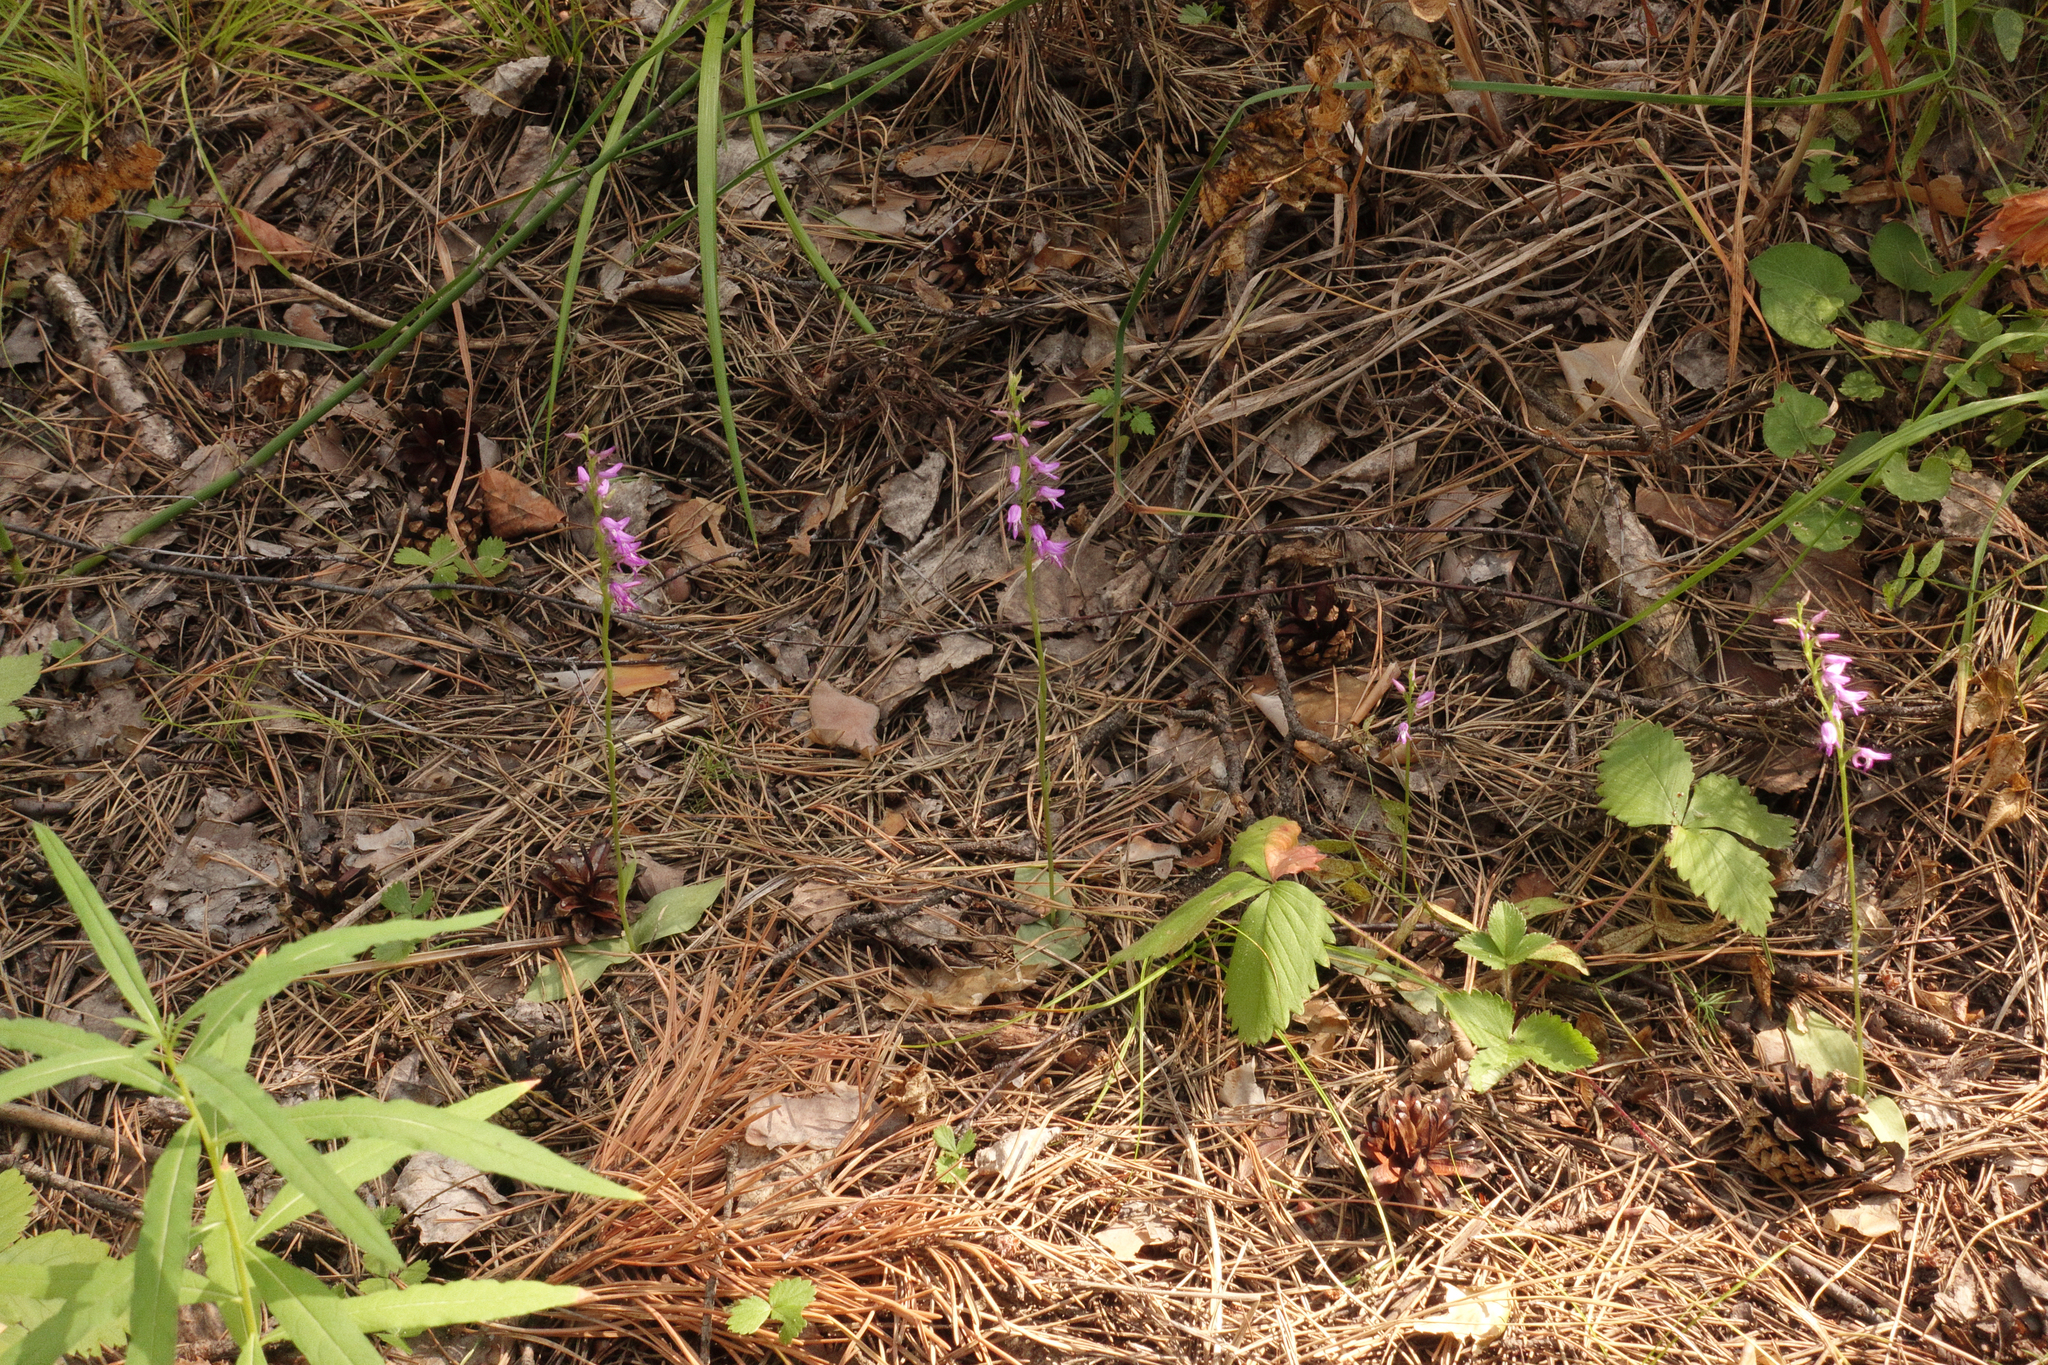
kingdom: Plantae
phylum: Tracheophyta
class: Liliopsida
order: Asparagales
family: Orchidaceae
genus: Hemipilia
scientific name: Hemipilia cucullata
